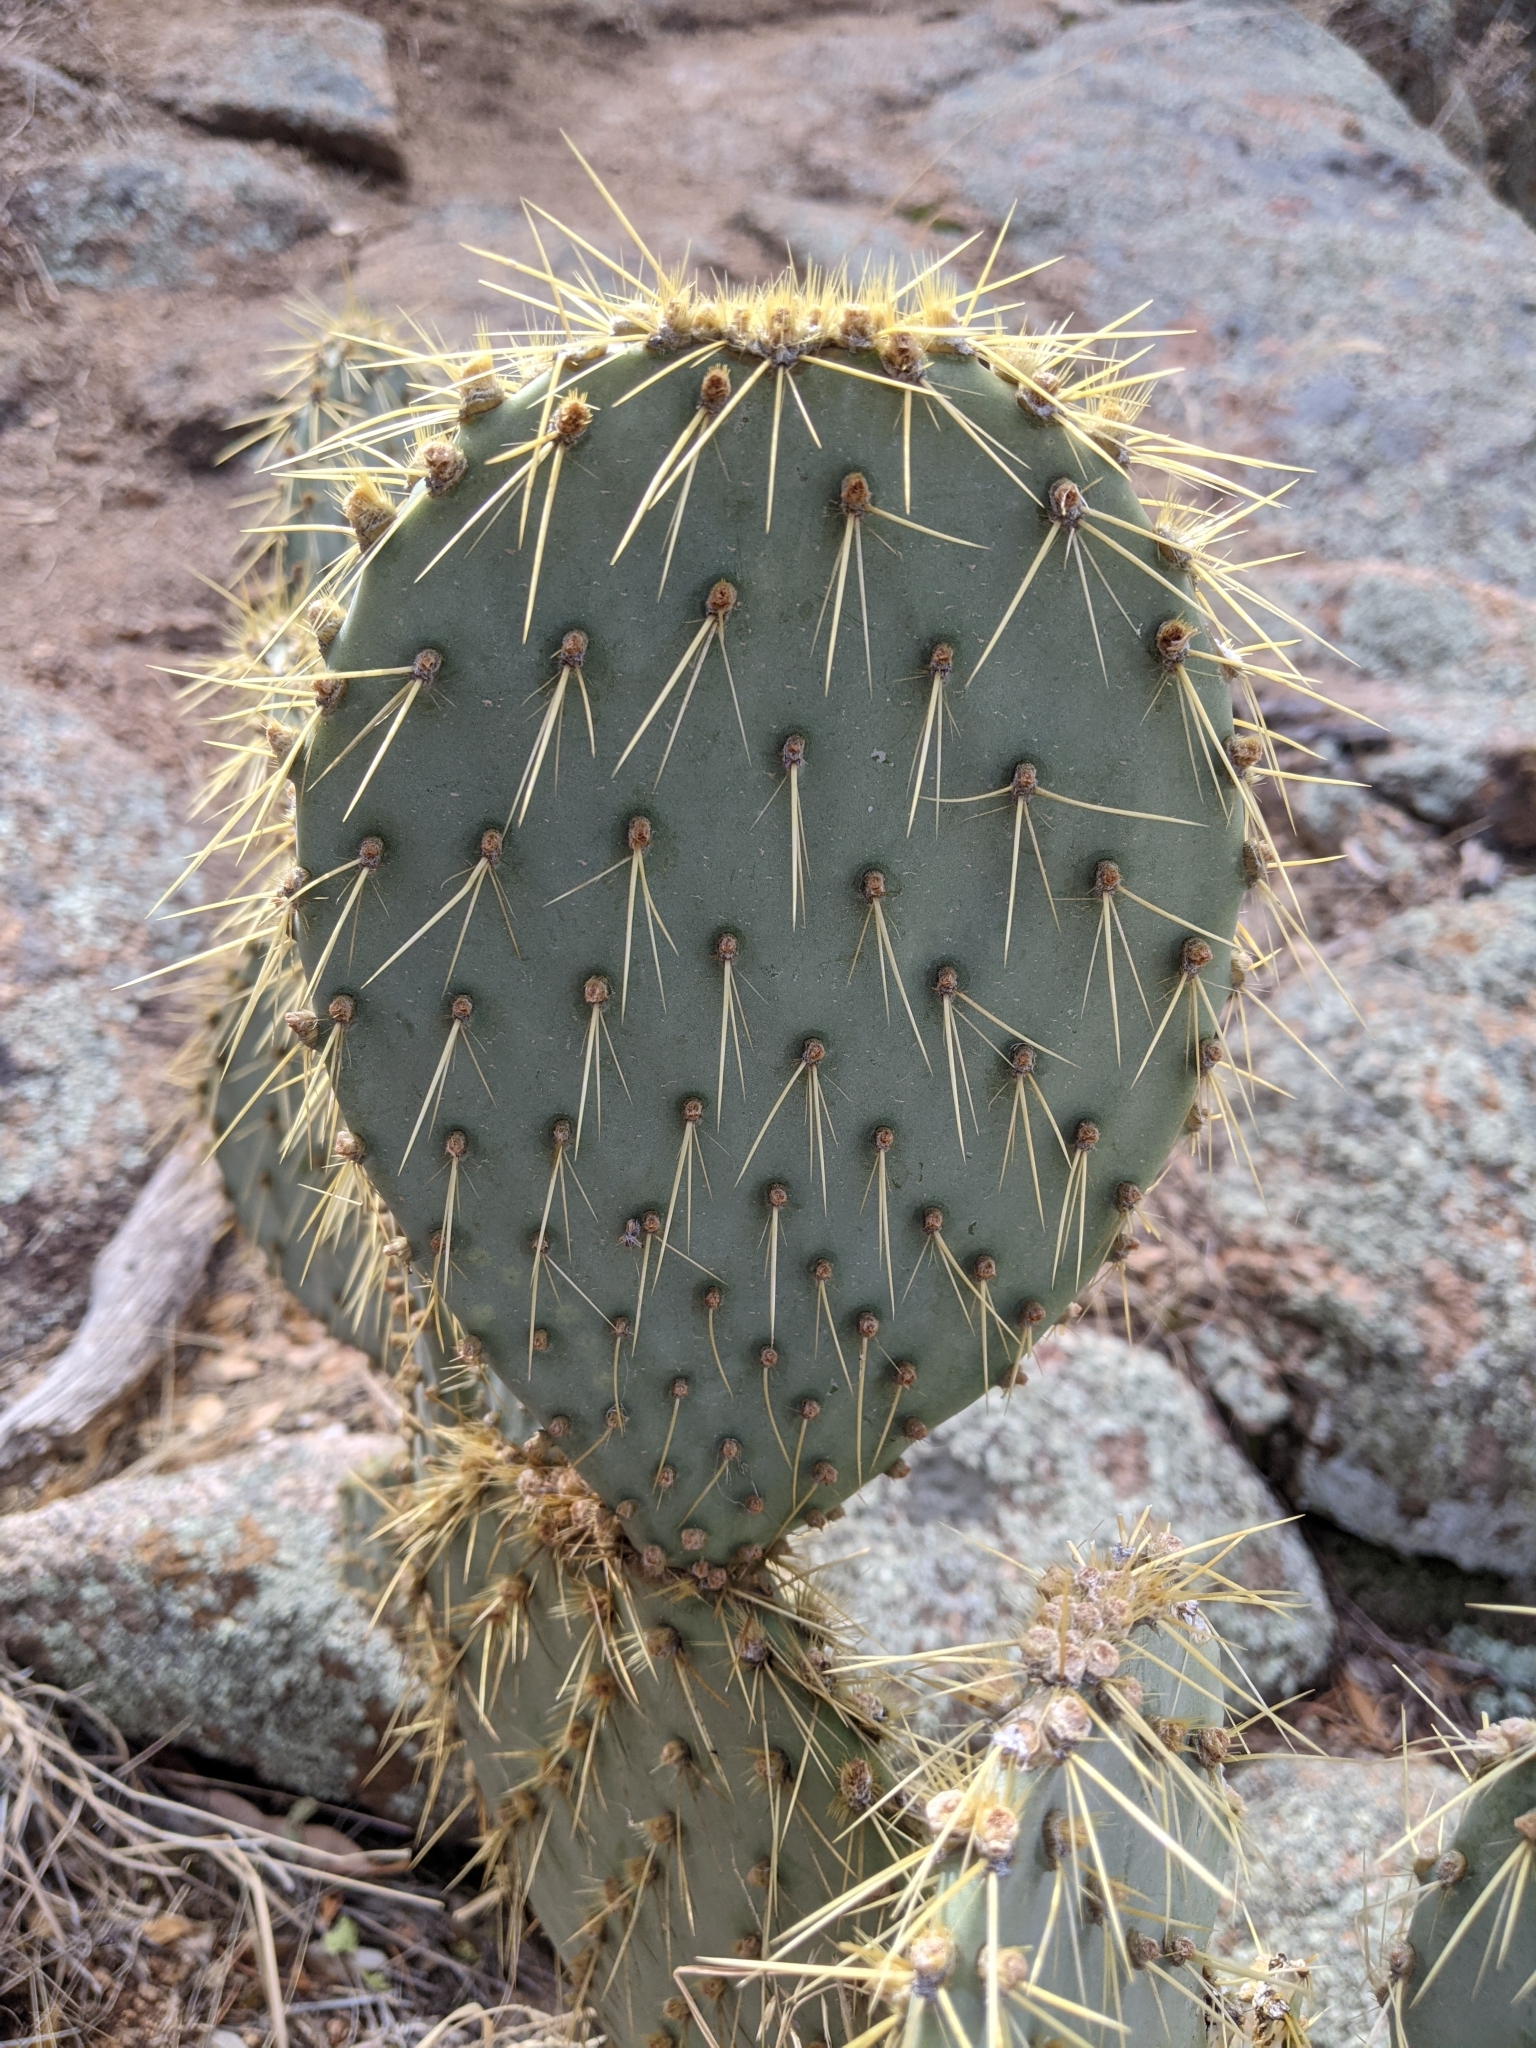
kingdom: Plantae
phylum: Tracheophyta
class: Magnoliopsida
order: Caryophyllales
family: Cactaceae
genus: Opuntia
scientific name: Opuntia chlorotica
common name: Dollar-joint prickly-pear
